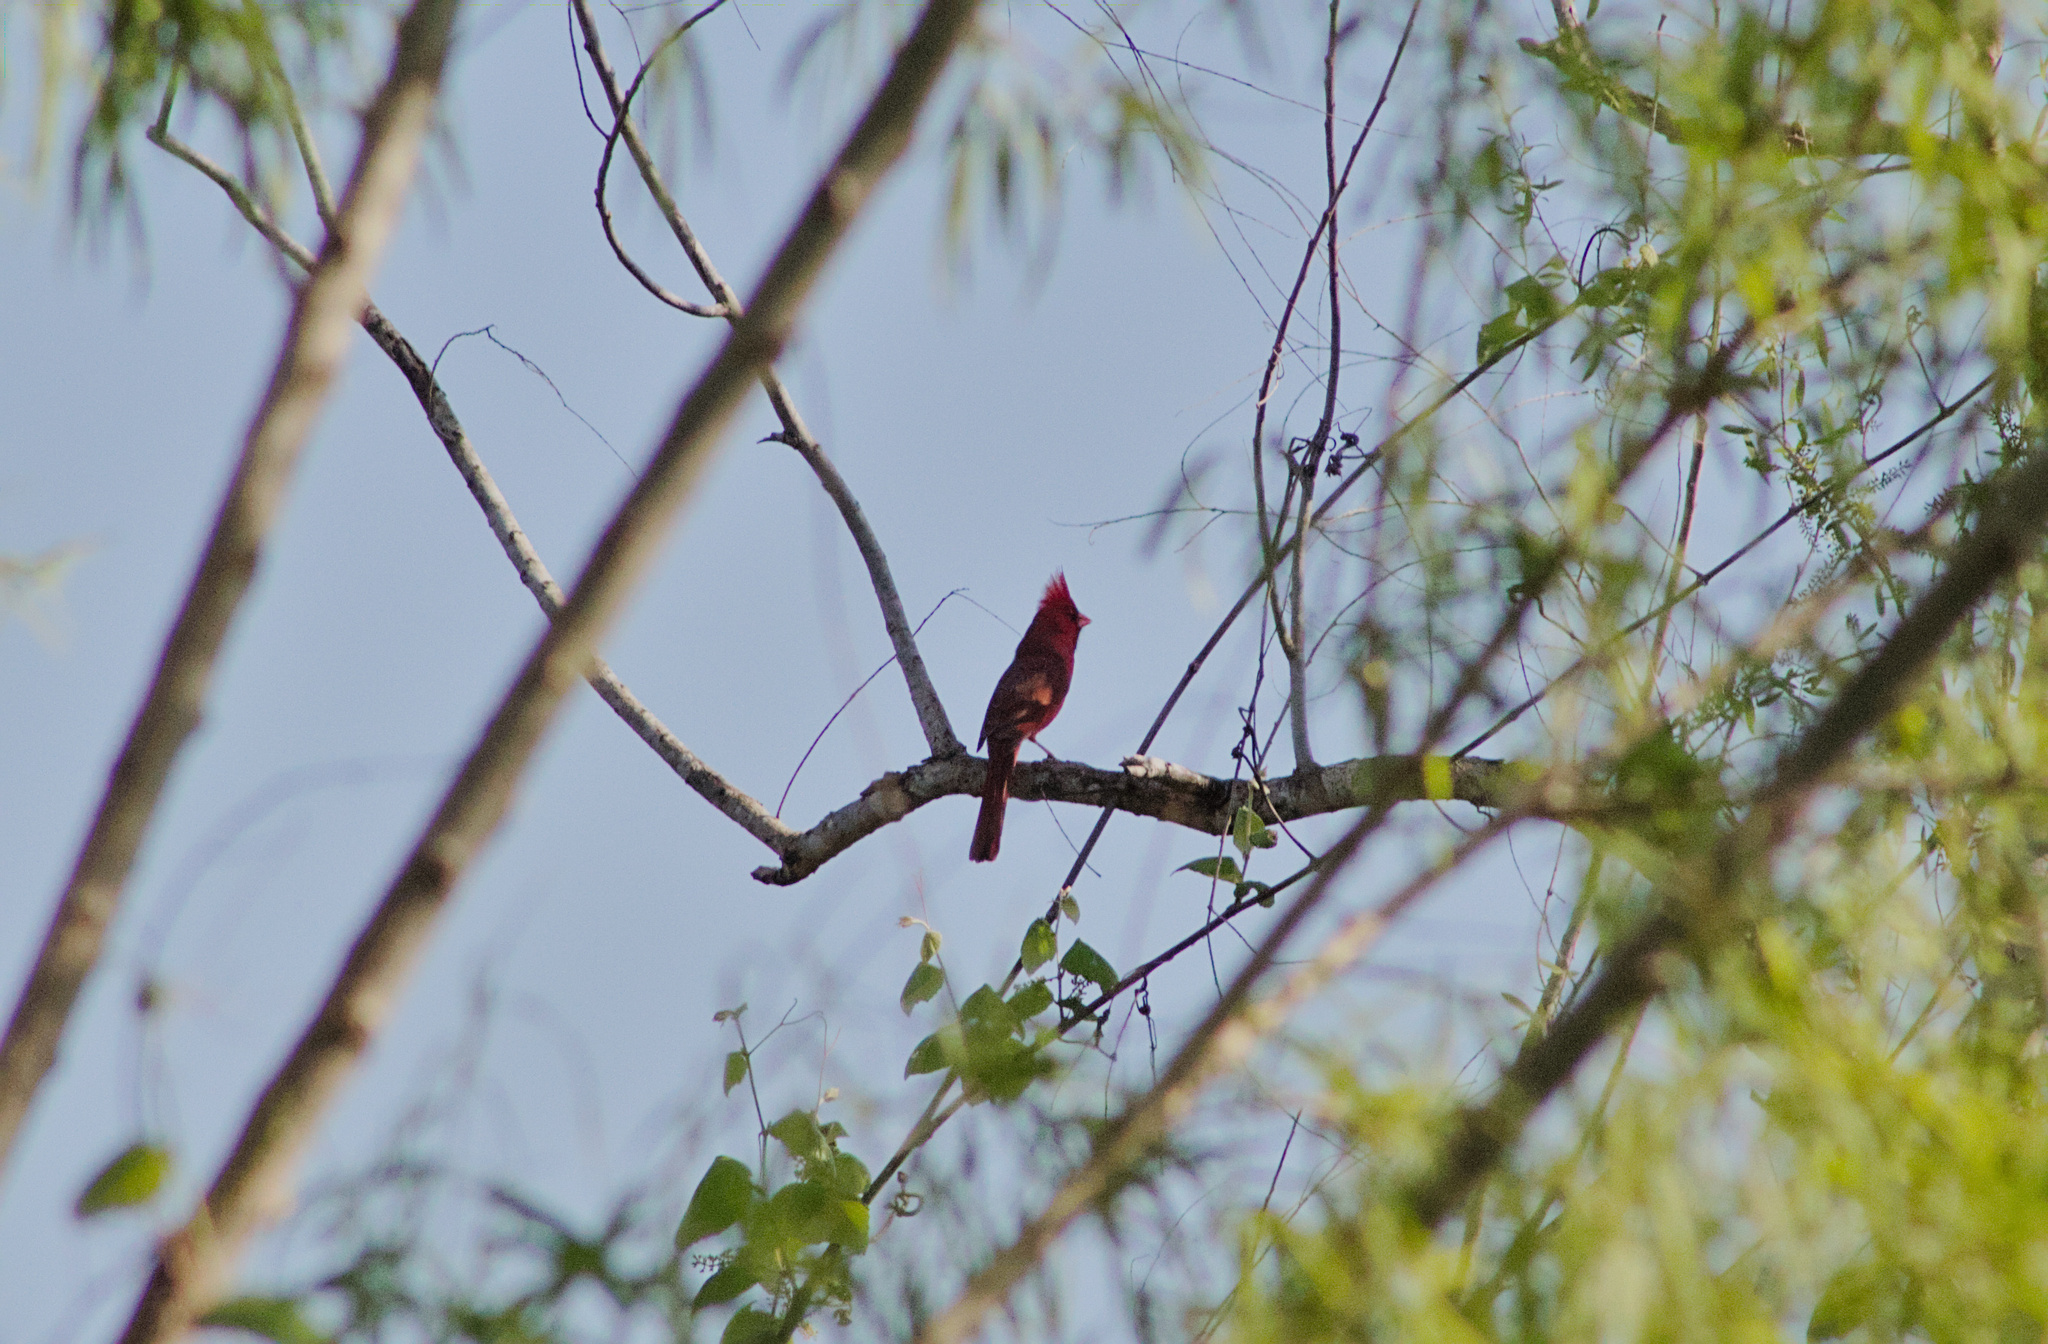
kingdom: Animalia
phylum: Chordata
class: Aves
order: Passeriformes
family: Cardinalidae
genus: Cardinalis
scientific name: Cardinalis cardinalis
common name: Northern cardinal
